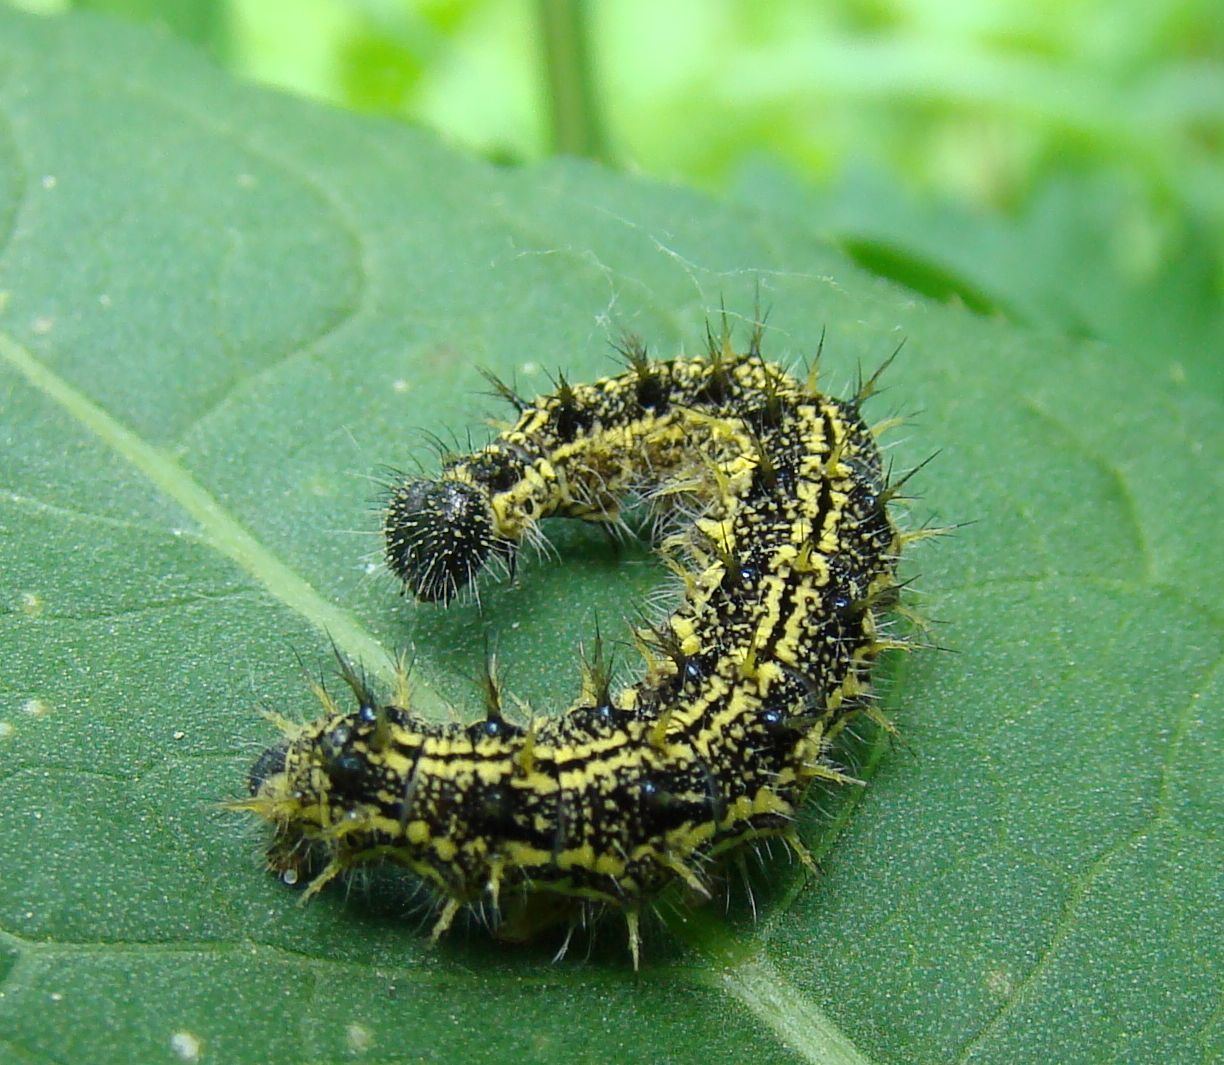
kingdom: Animalia
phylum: Arthropoda
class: Insecta
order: Lepidoptera
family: Nymphalidae
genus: Aglais
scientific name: Aglais urticae
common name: Small tortoiseshell
